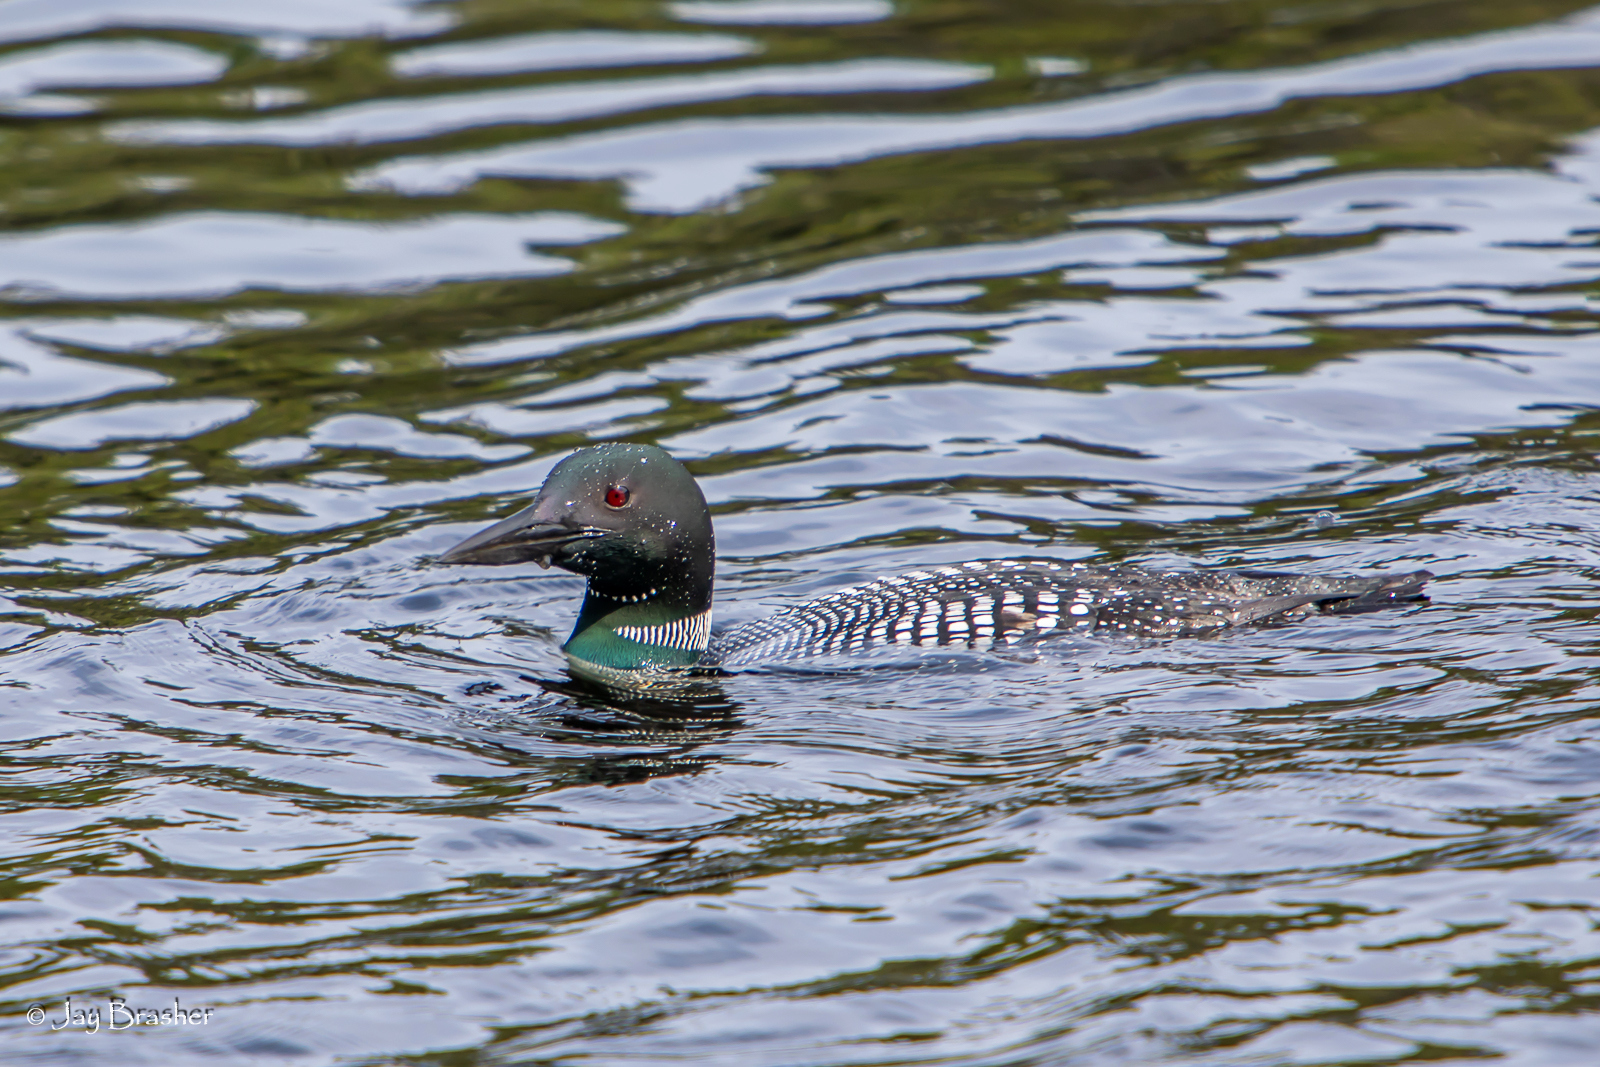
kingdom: Animalia
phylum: Chordata
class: Aves
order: Gaviiformes
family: Gaviidae
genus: Gavia
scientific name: Gavia immer
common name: Common loon
